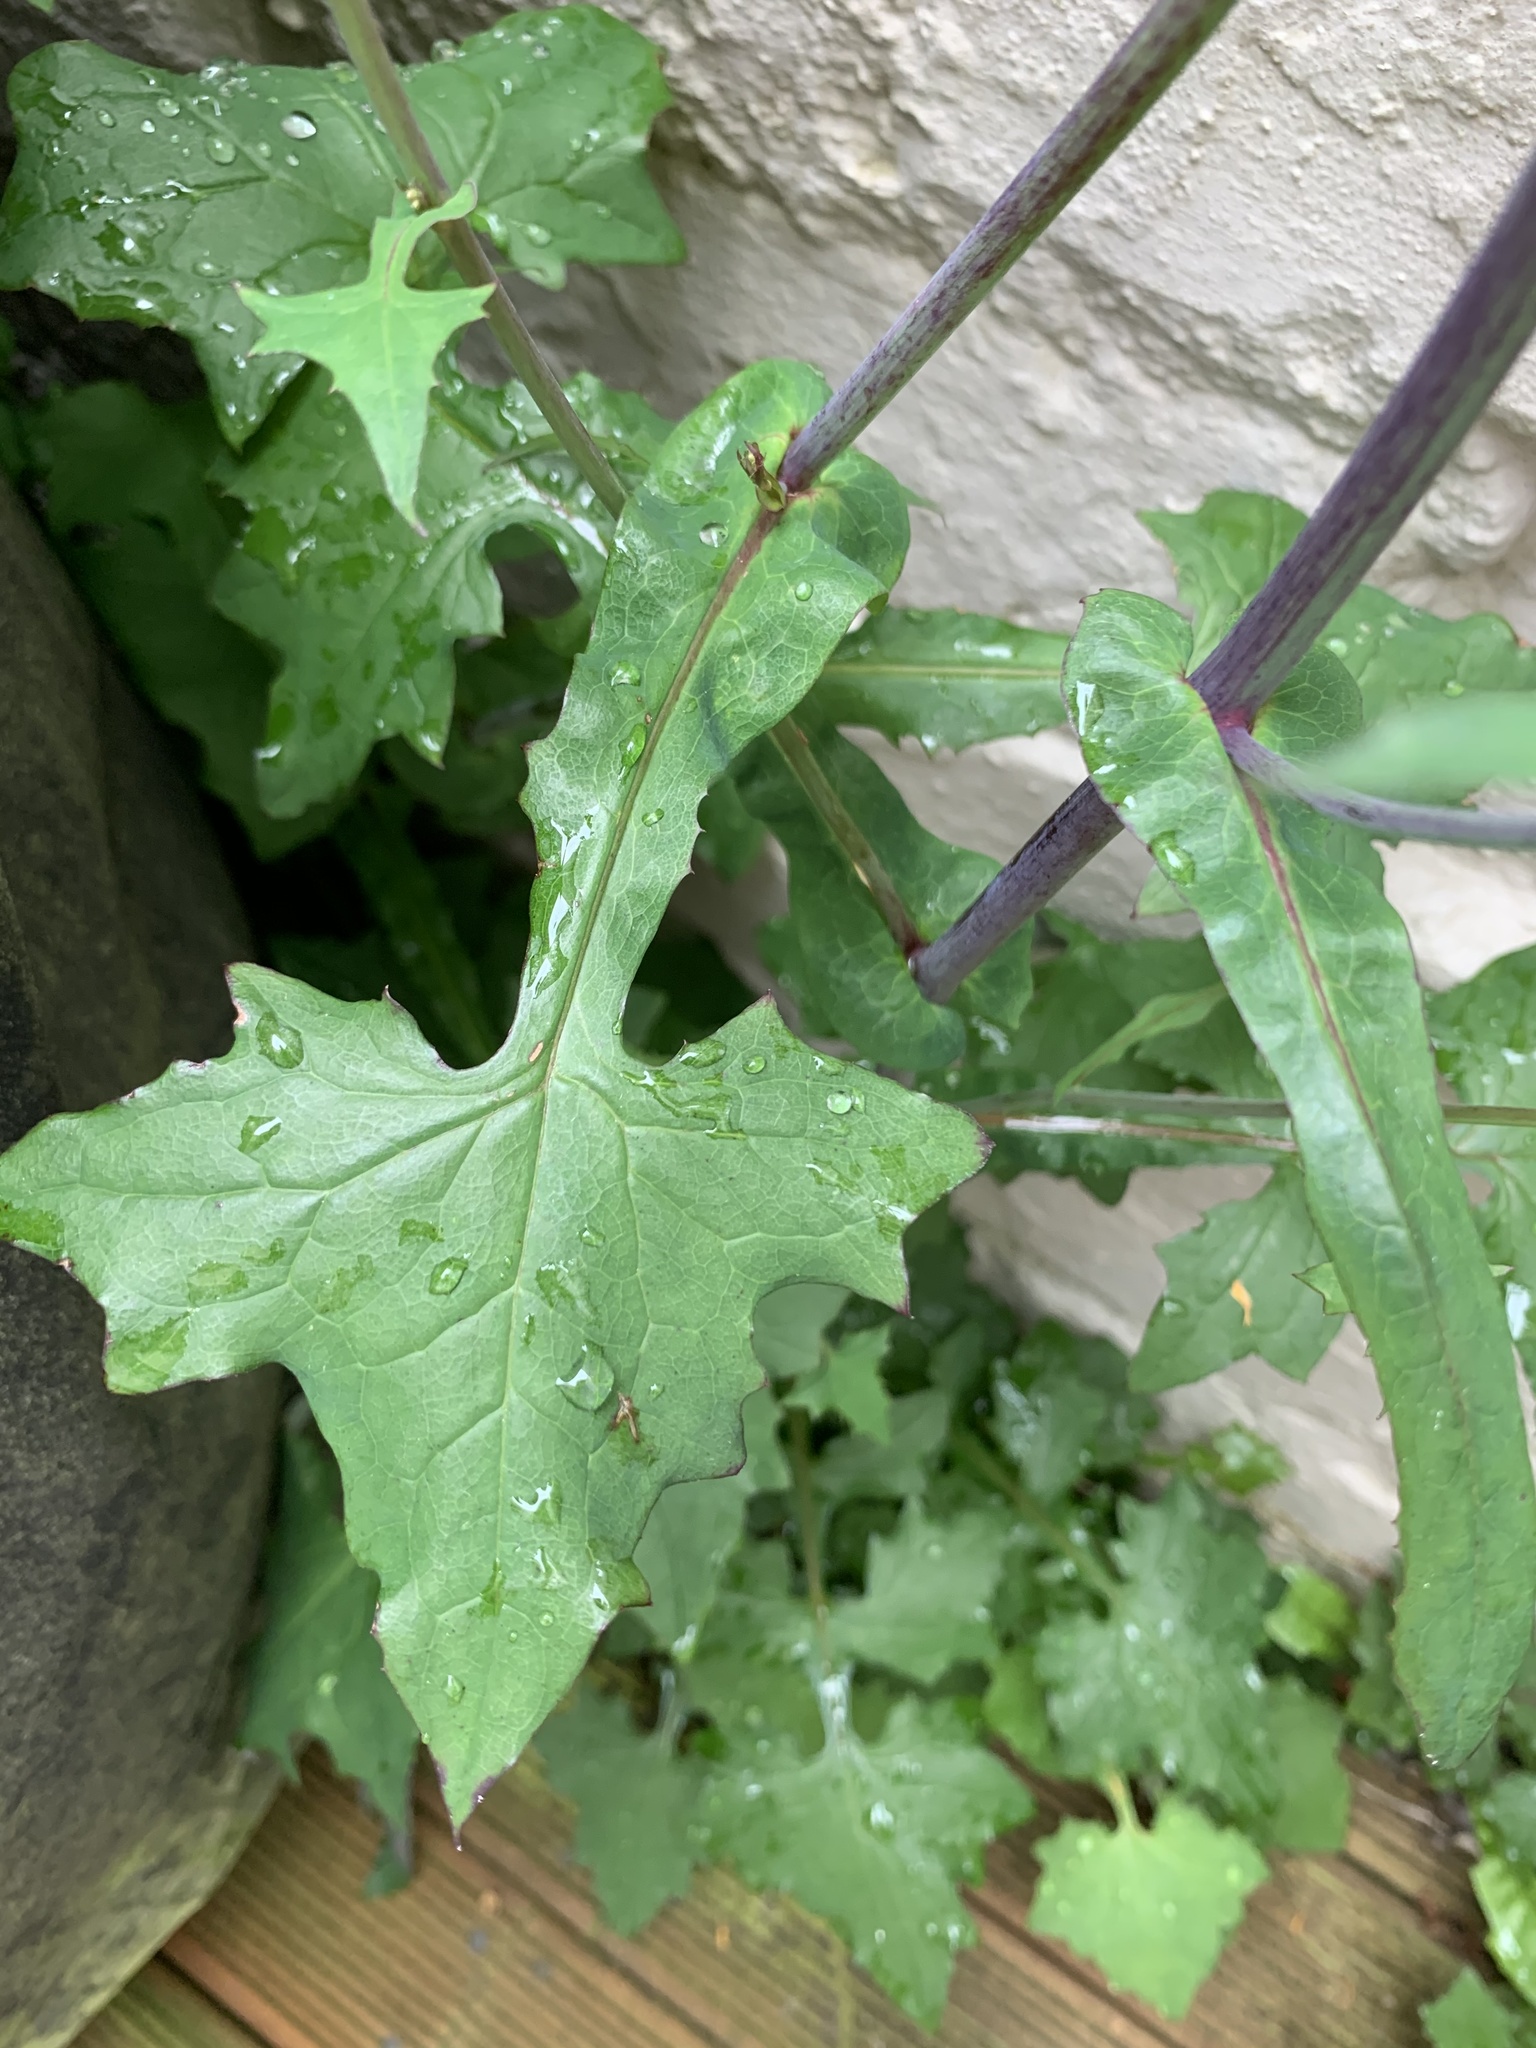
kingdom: Plantae
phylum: Tracheophyta
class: Magnoliopsida
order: Asterales
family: Asteraceae
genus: Mycelis
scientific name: Mycelis muralis
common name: Wall lettuce
